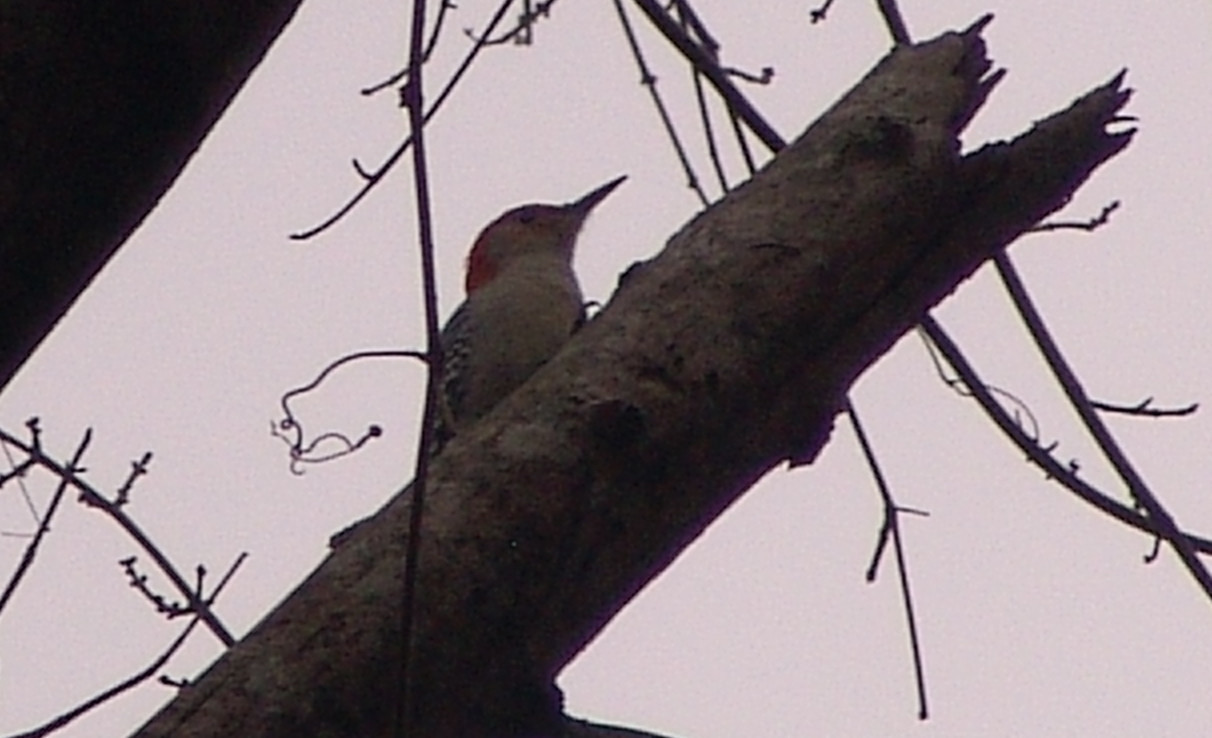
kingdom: Animalia
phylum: Chordata
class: Aves
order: Piciformes
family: Picidae
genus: Melanerpes
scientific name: Melanerpes carolinus
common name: Red-bellied woodpecker
